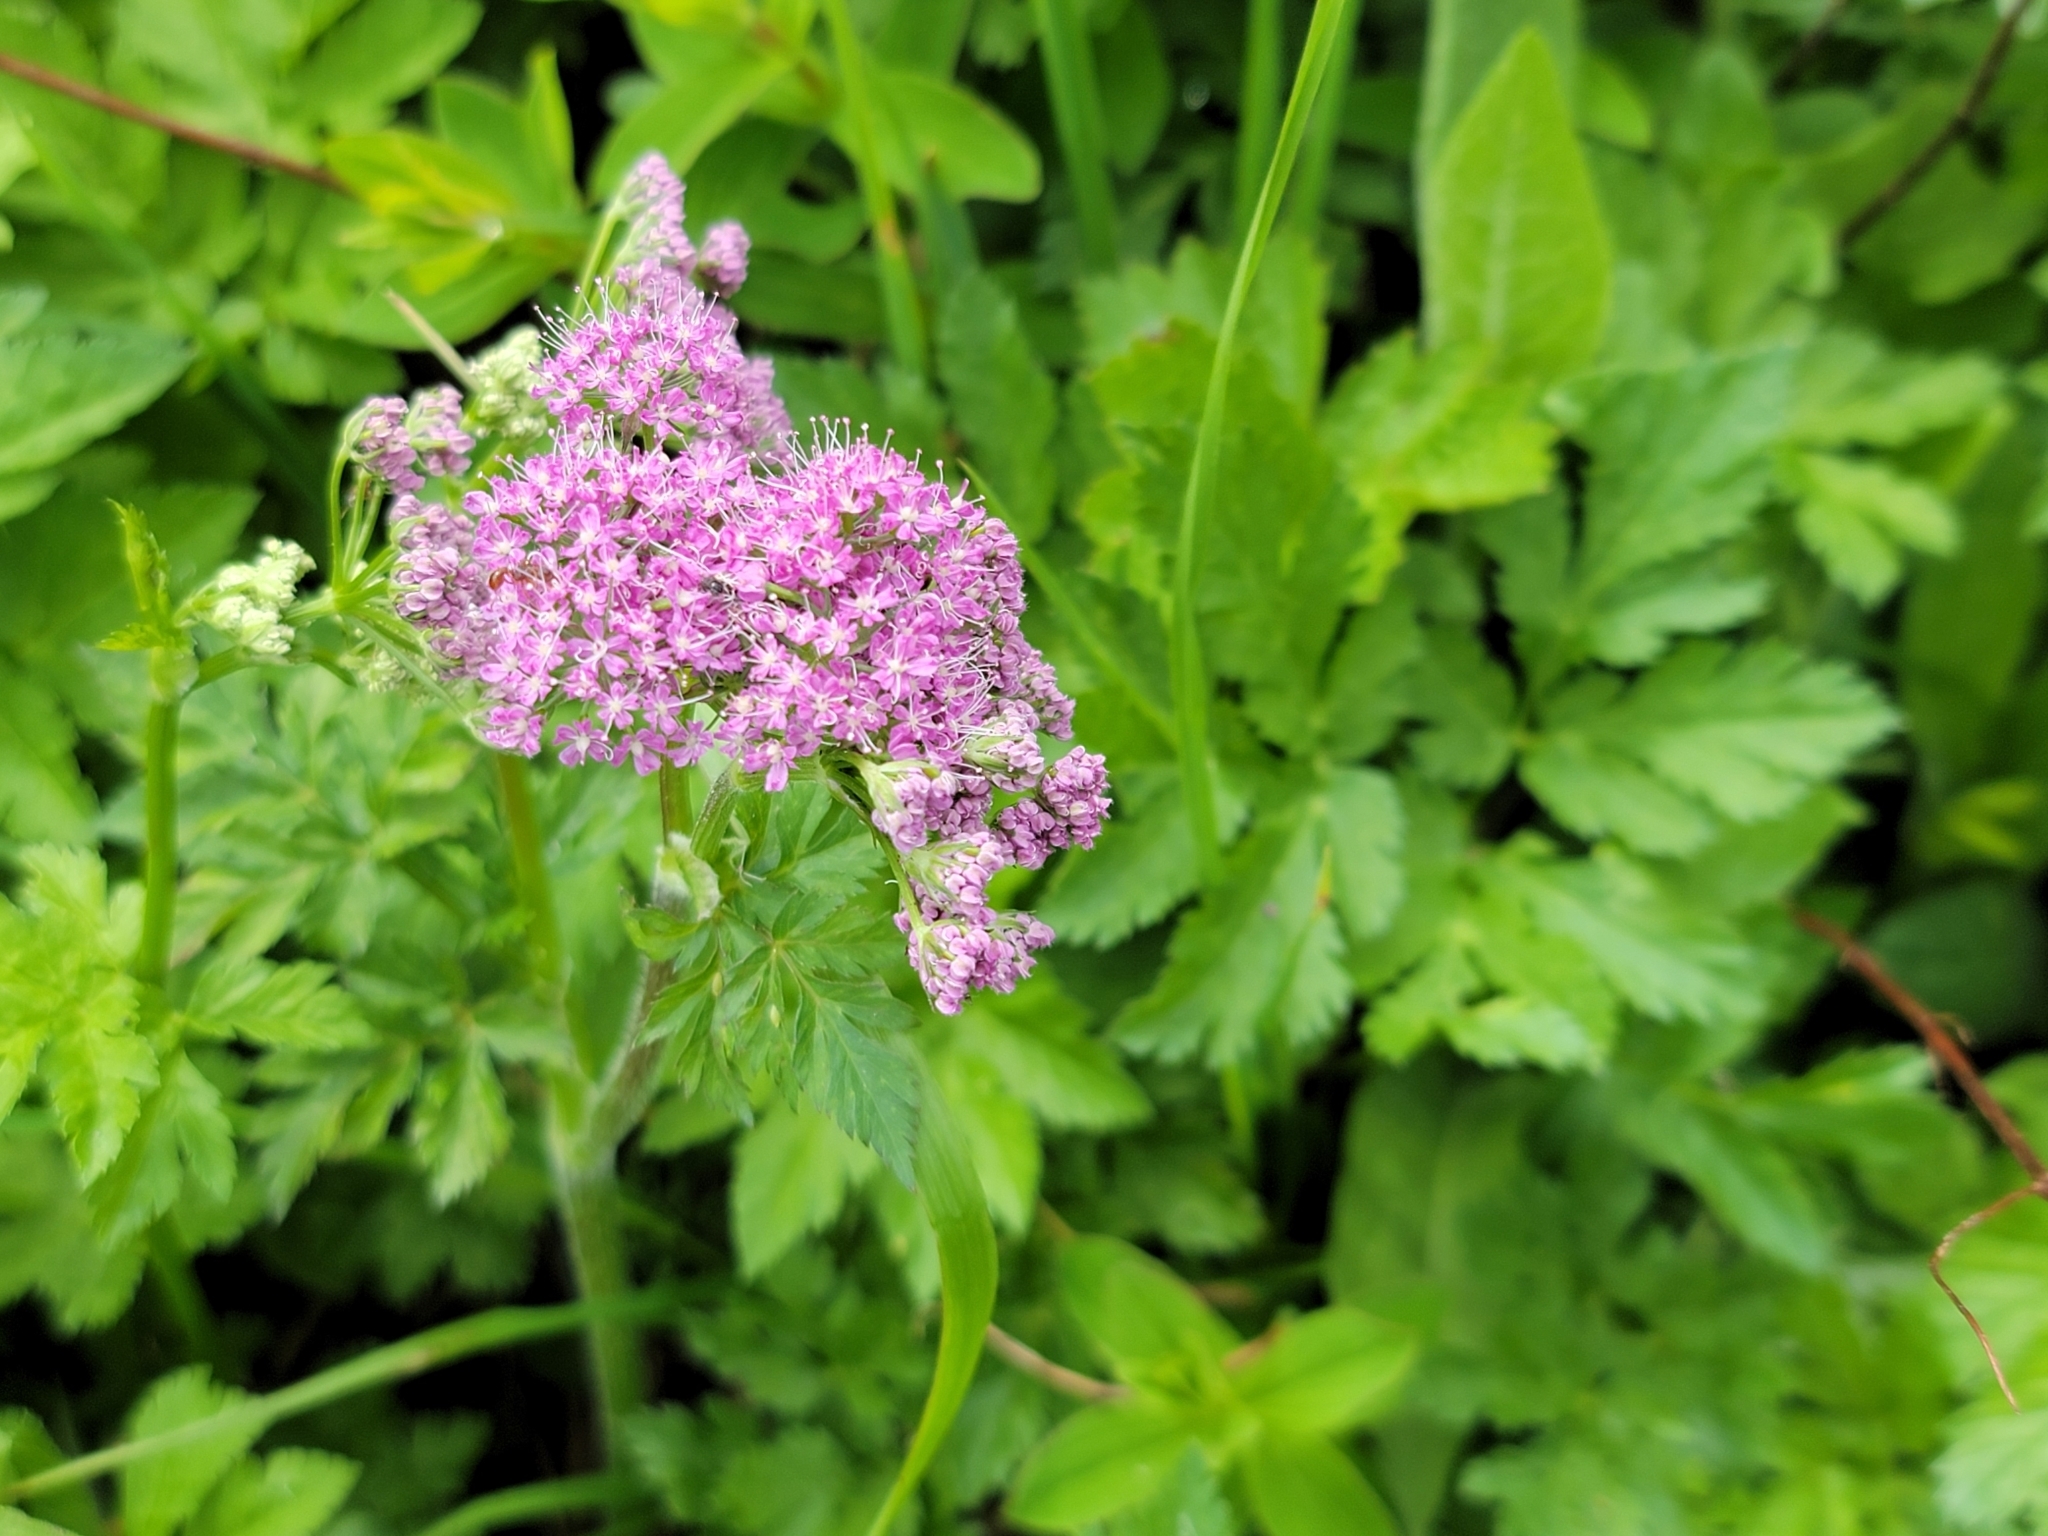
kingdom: Plantae
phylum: Tracheophyta
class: Magnoliopsida
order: Apiales
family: Apiaceae
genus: Chaerophyllum
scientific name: Chaerophyllum hirsutum
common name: Hairy chervil
